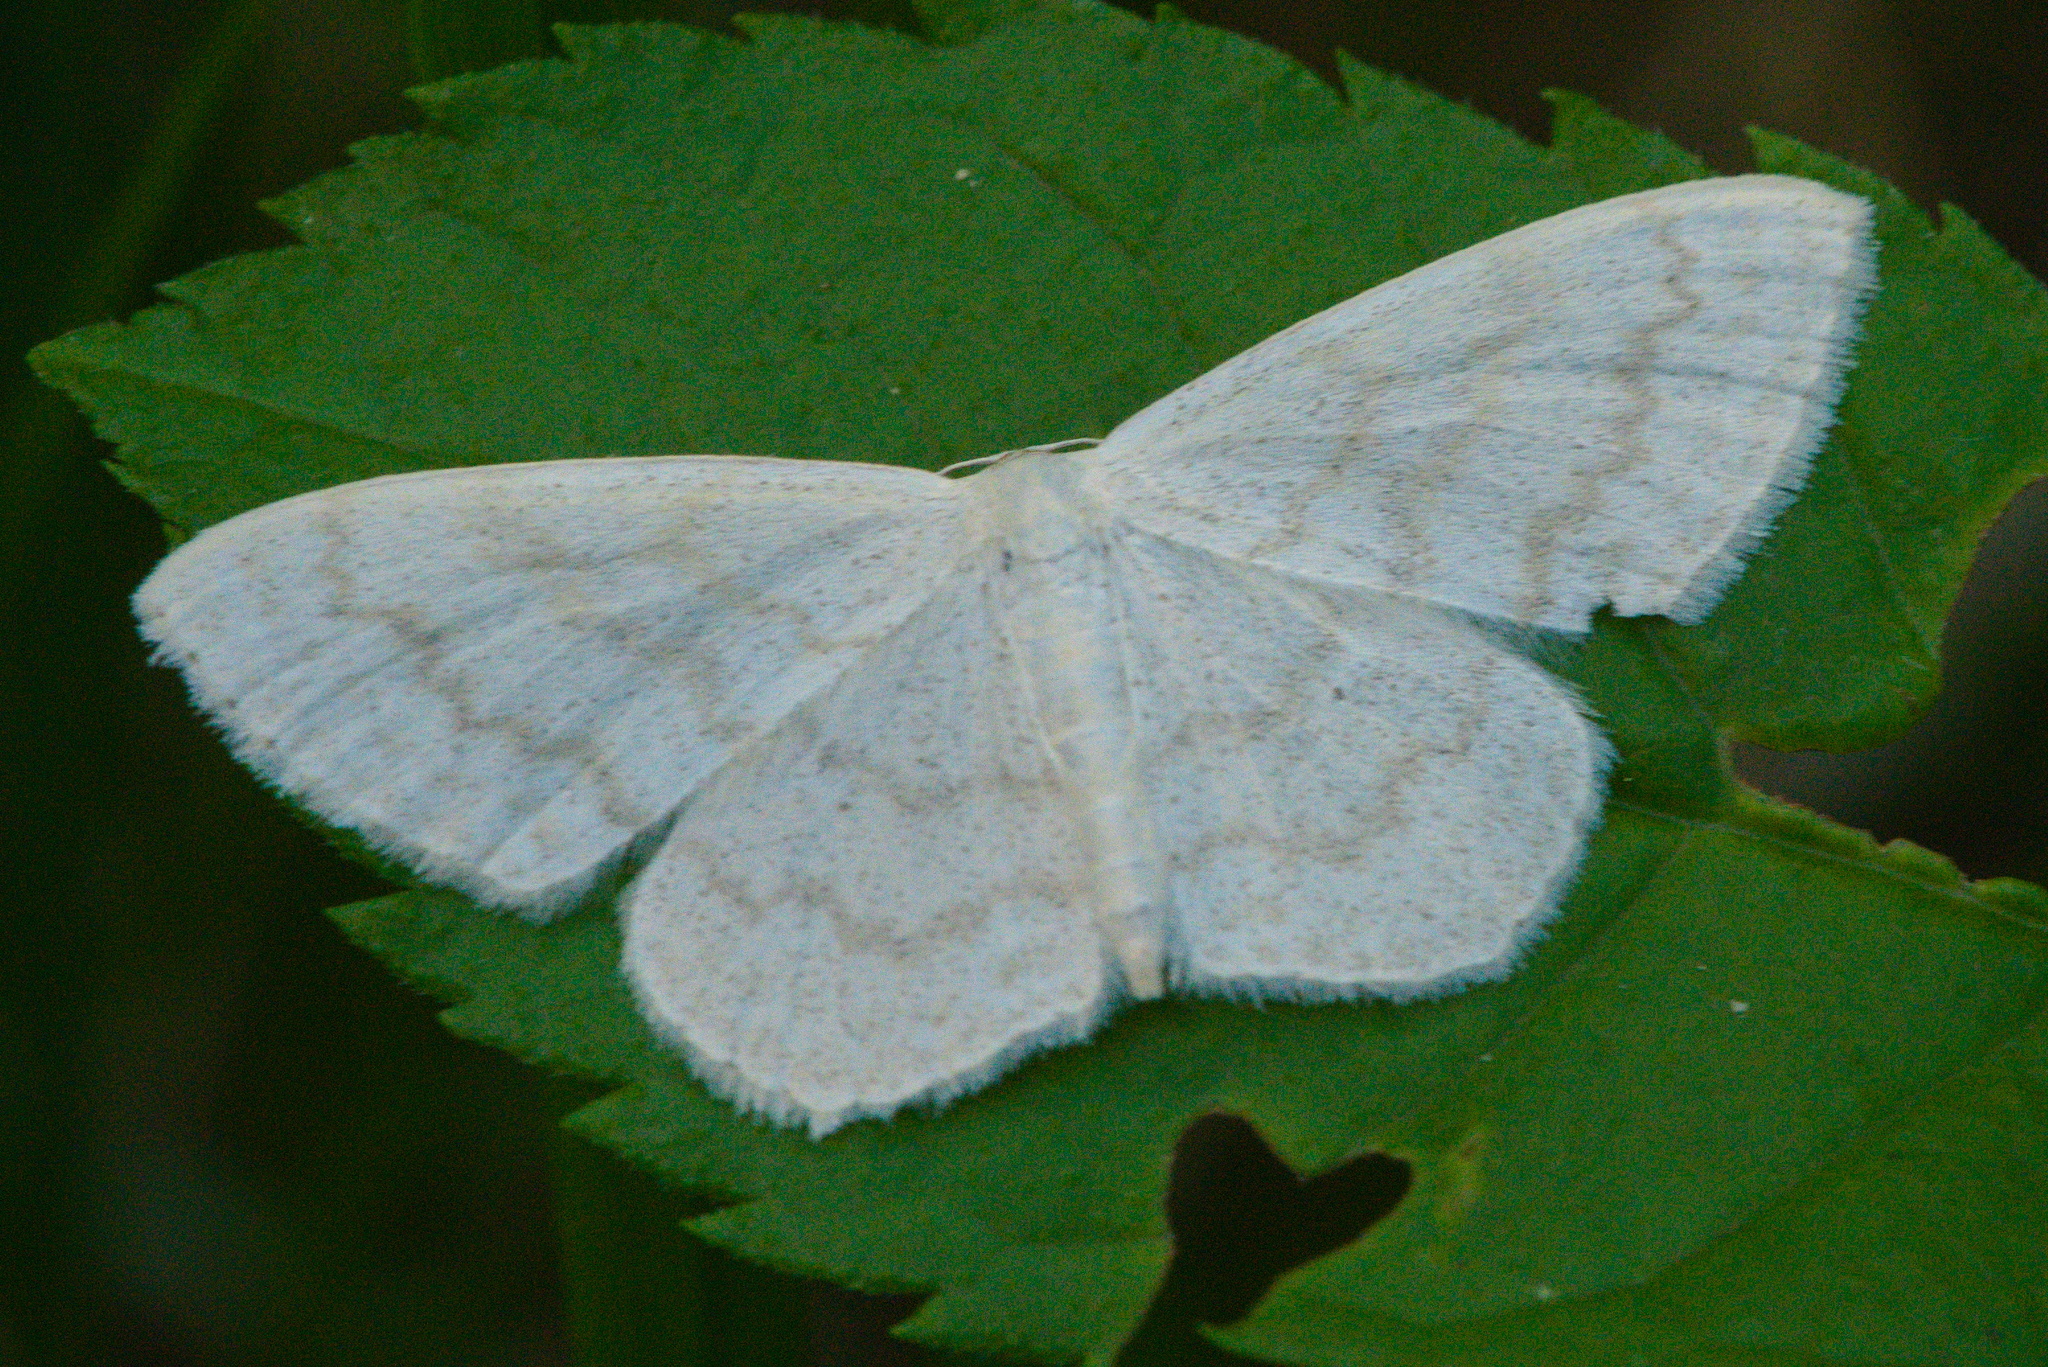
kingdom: Animalia
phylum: Arthropoda
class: Insecta
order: Lepidoptera
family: Geometridae
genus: Scopula
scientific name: Scopula floslactata
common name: Cream wave
